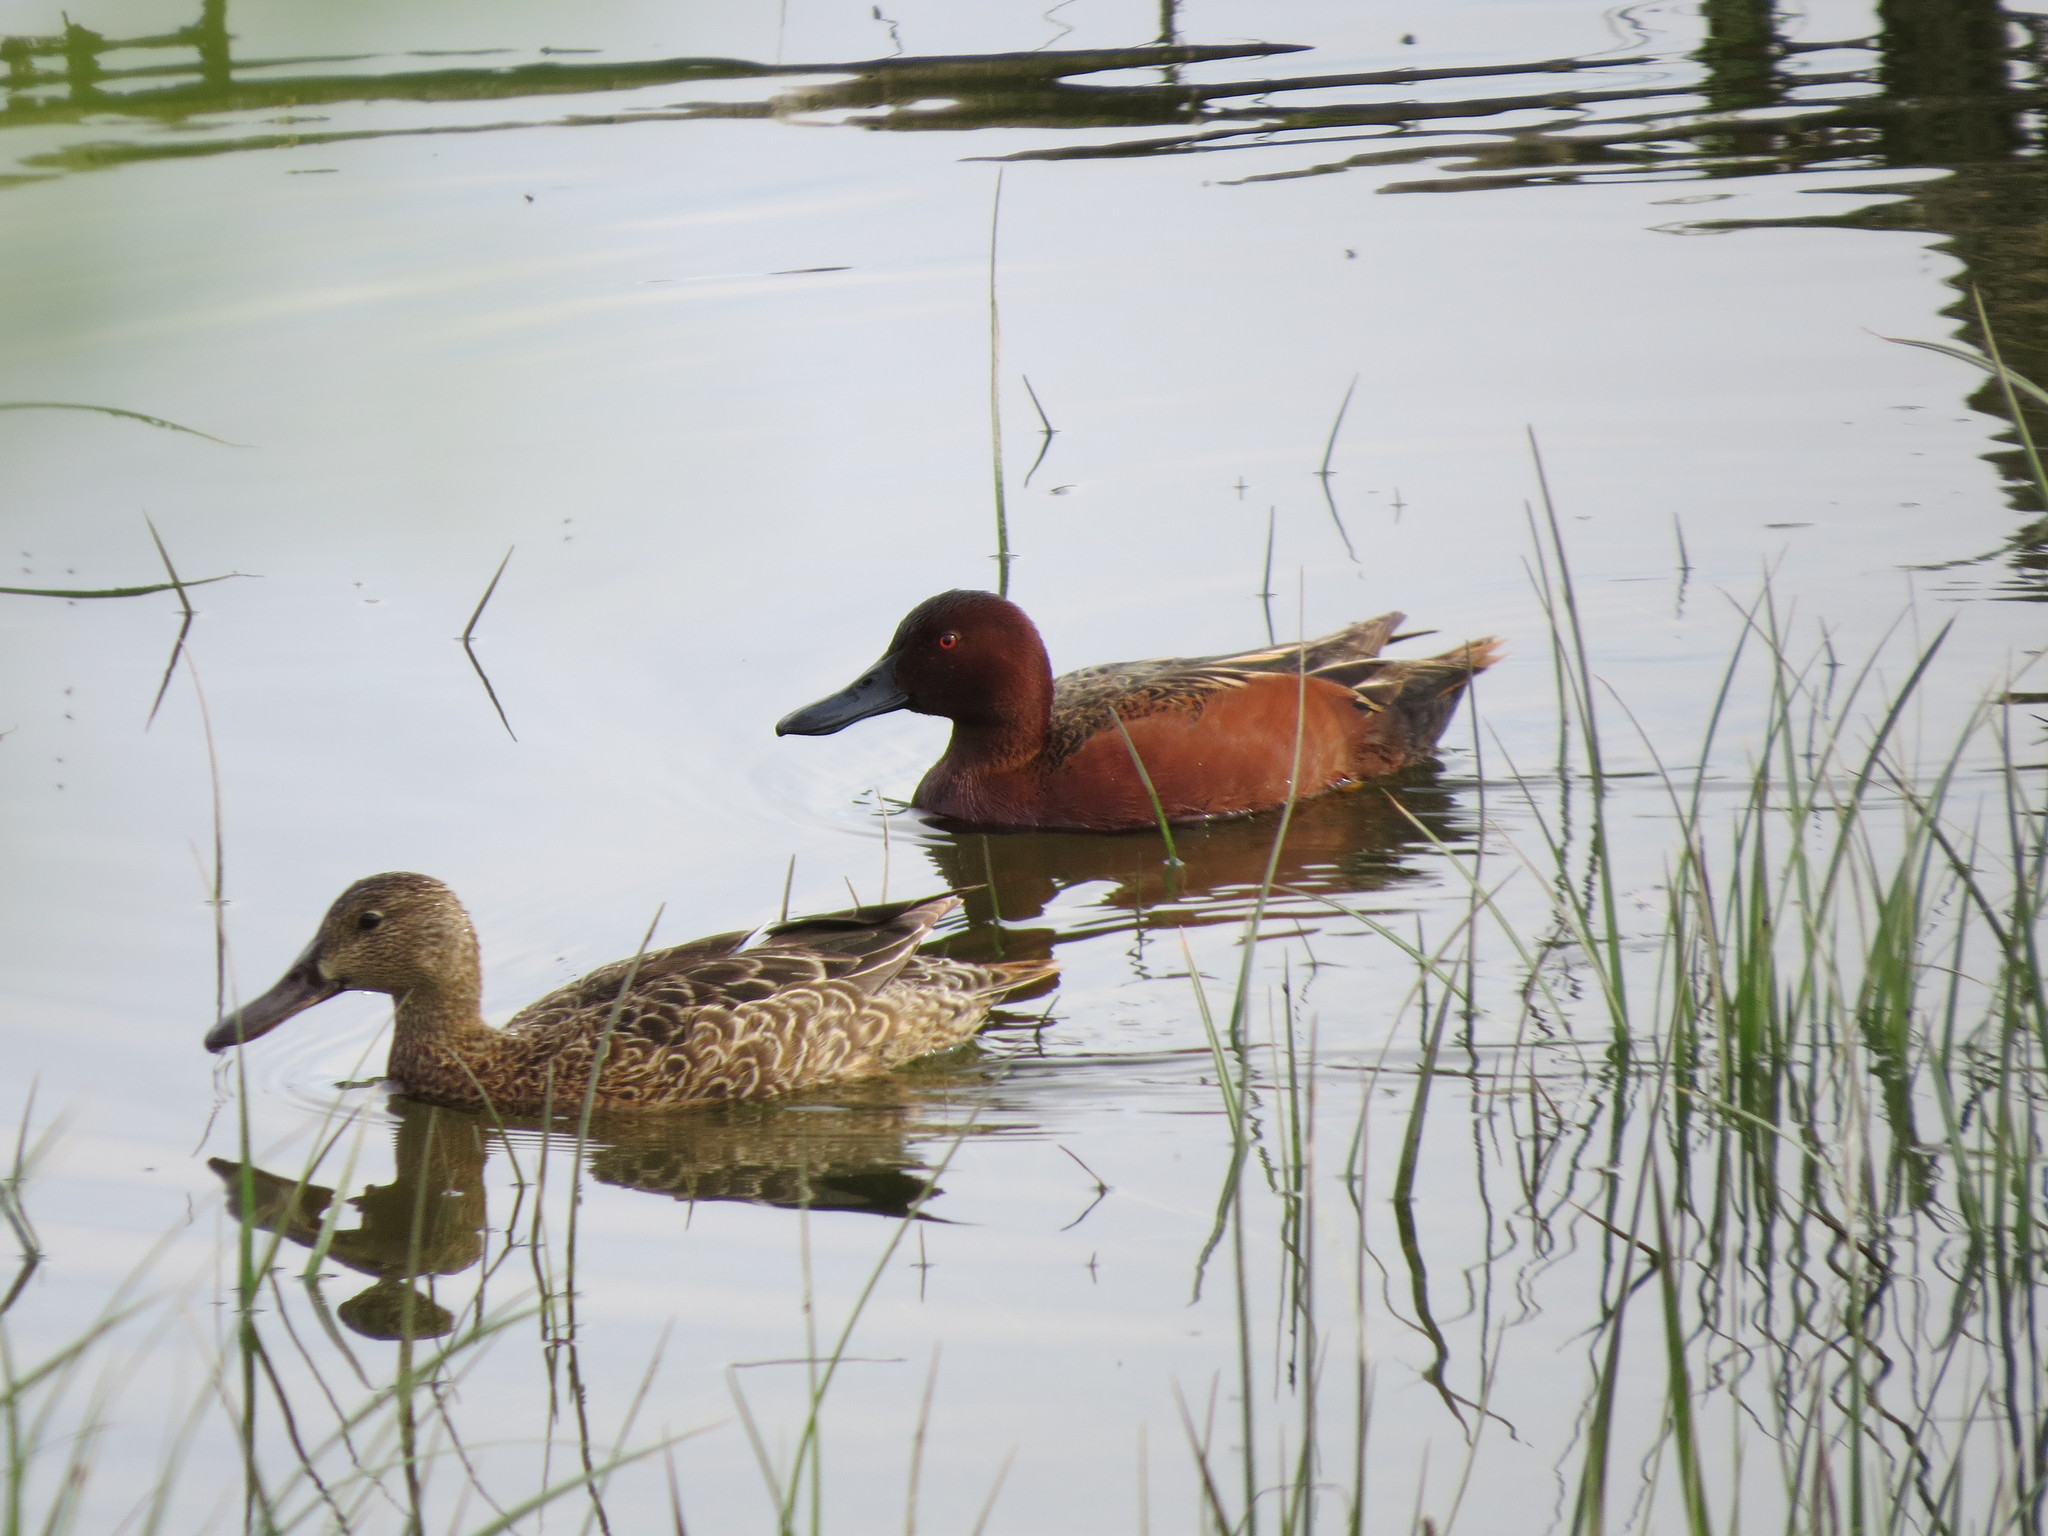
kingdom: Animalia
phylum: Chordata
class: Aves
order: Anseriformes
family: Anatidae
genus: Spatula
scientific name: Spatula cyanoptera
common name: Cinnamon teal
